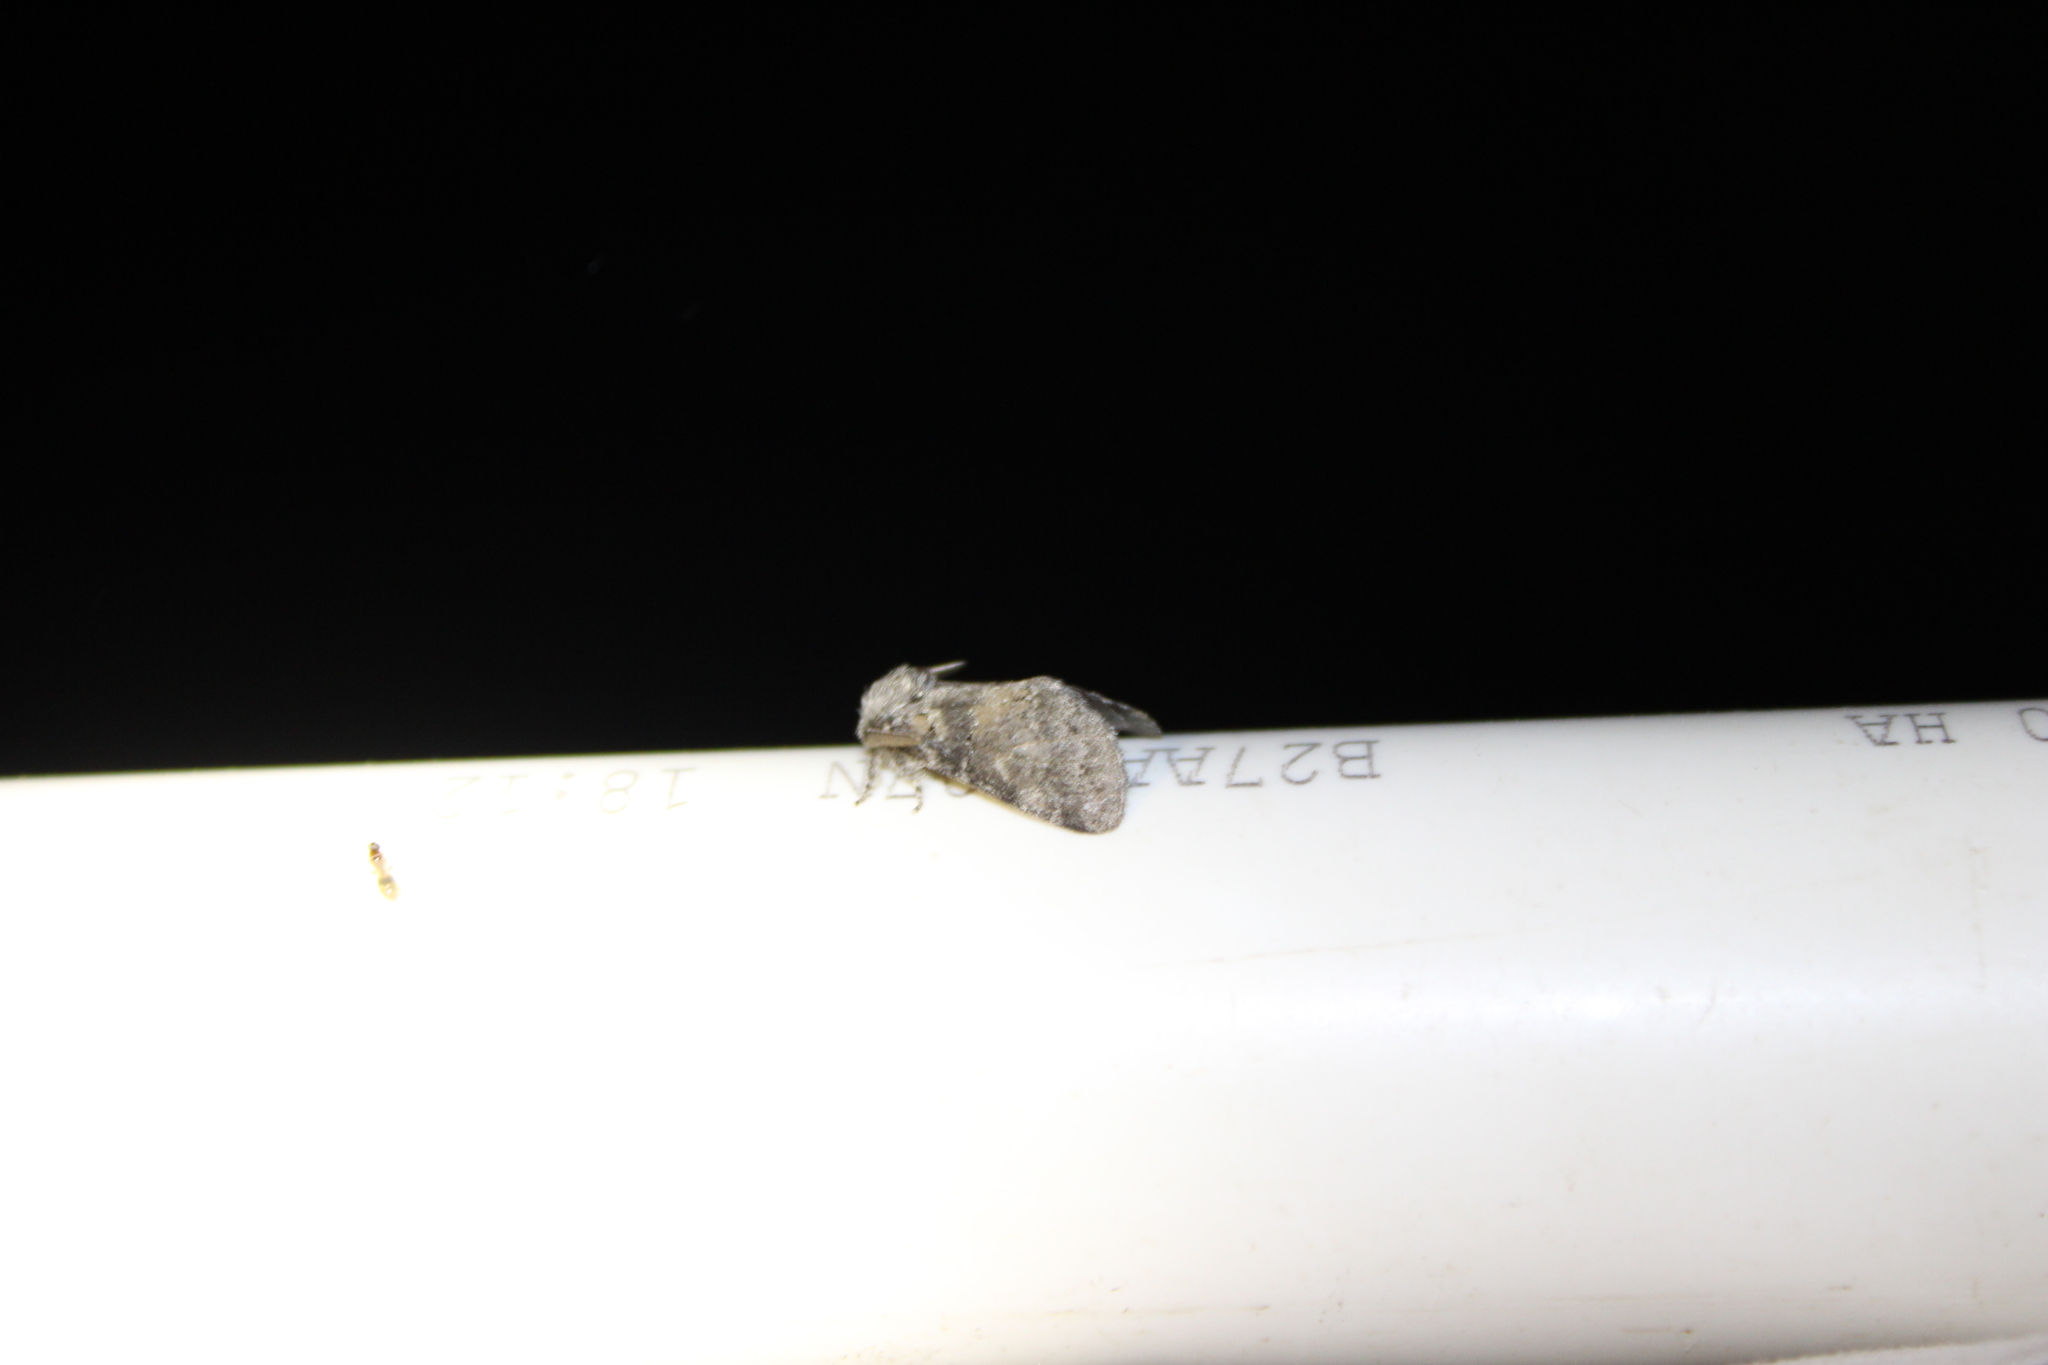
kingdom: Animalia
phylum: Arthropoda
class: Insecta
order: Lepidoptera
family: Notodontidae
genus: Gluphisia
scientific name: Gluphisia septentrionis
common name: Common gluphisia
